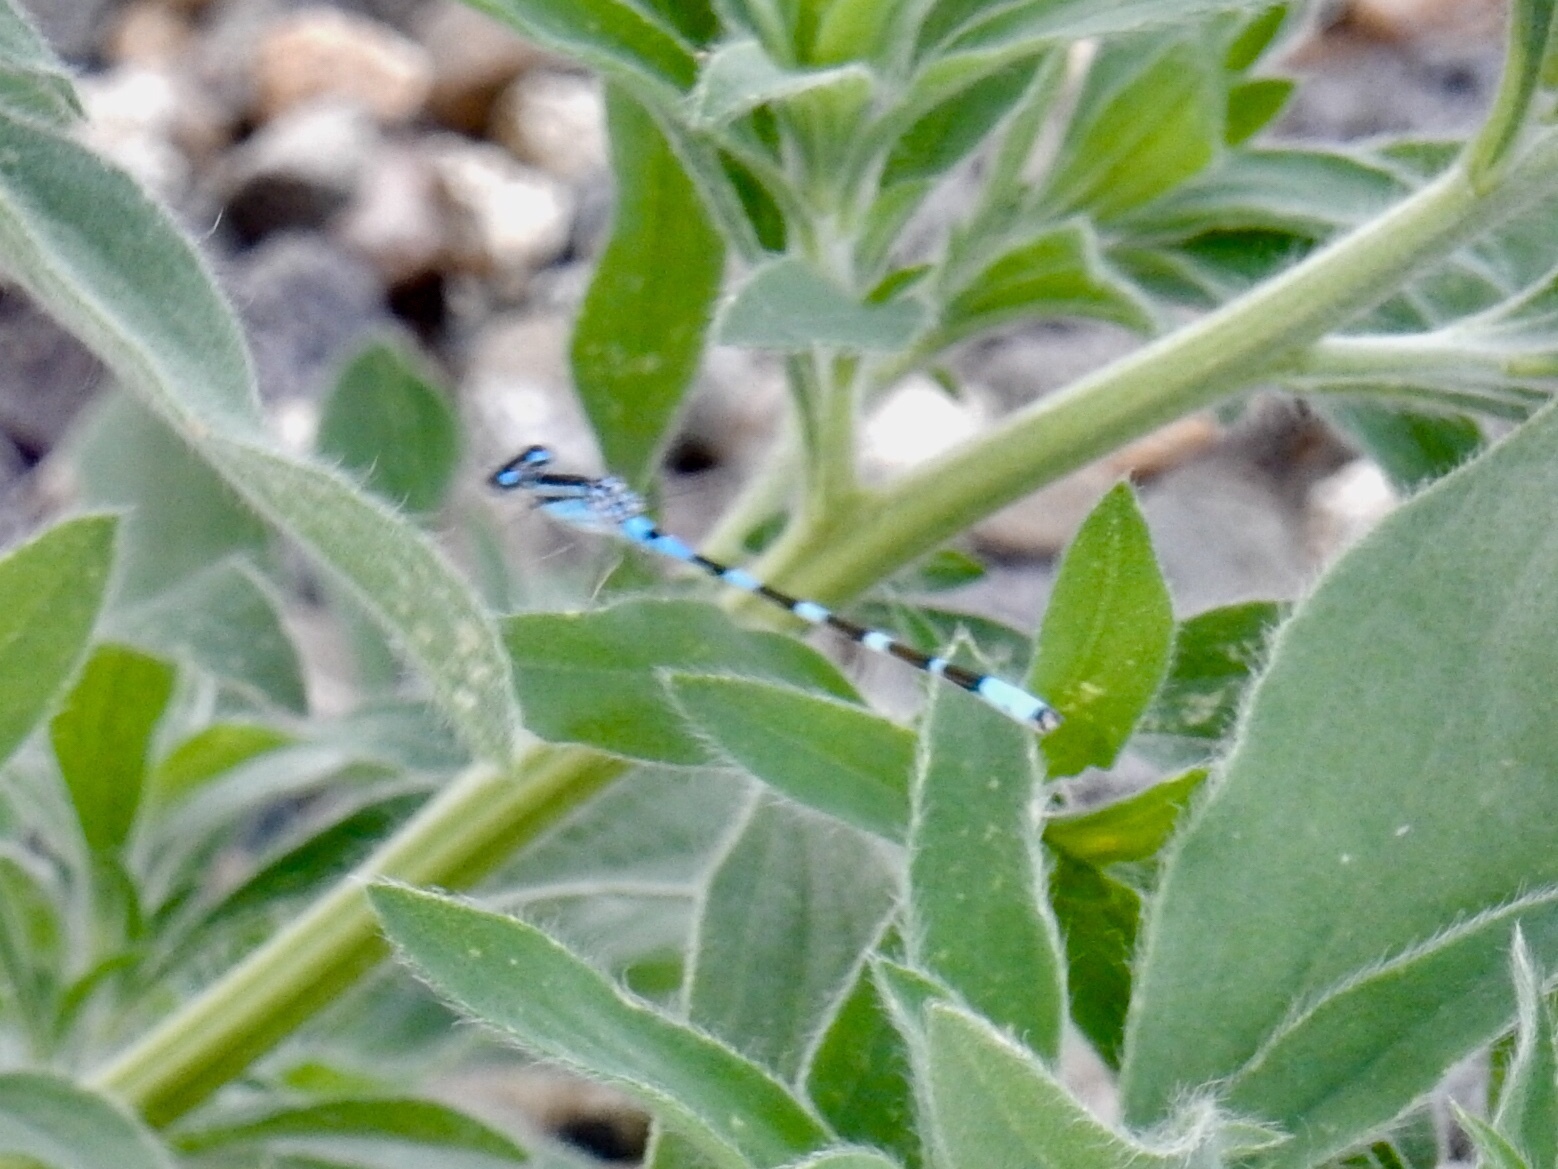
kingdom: Animalia
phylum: Arthropoda
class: Insecta
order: Odonata
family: Coenagrionidae
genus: Enallagma
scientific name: Enallagma carunculatum
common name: Tule bluet
